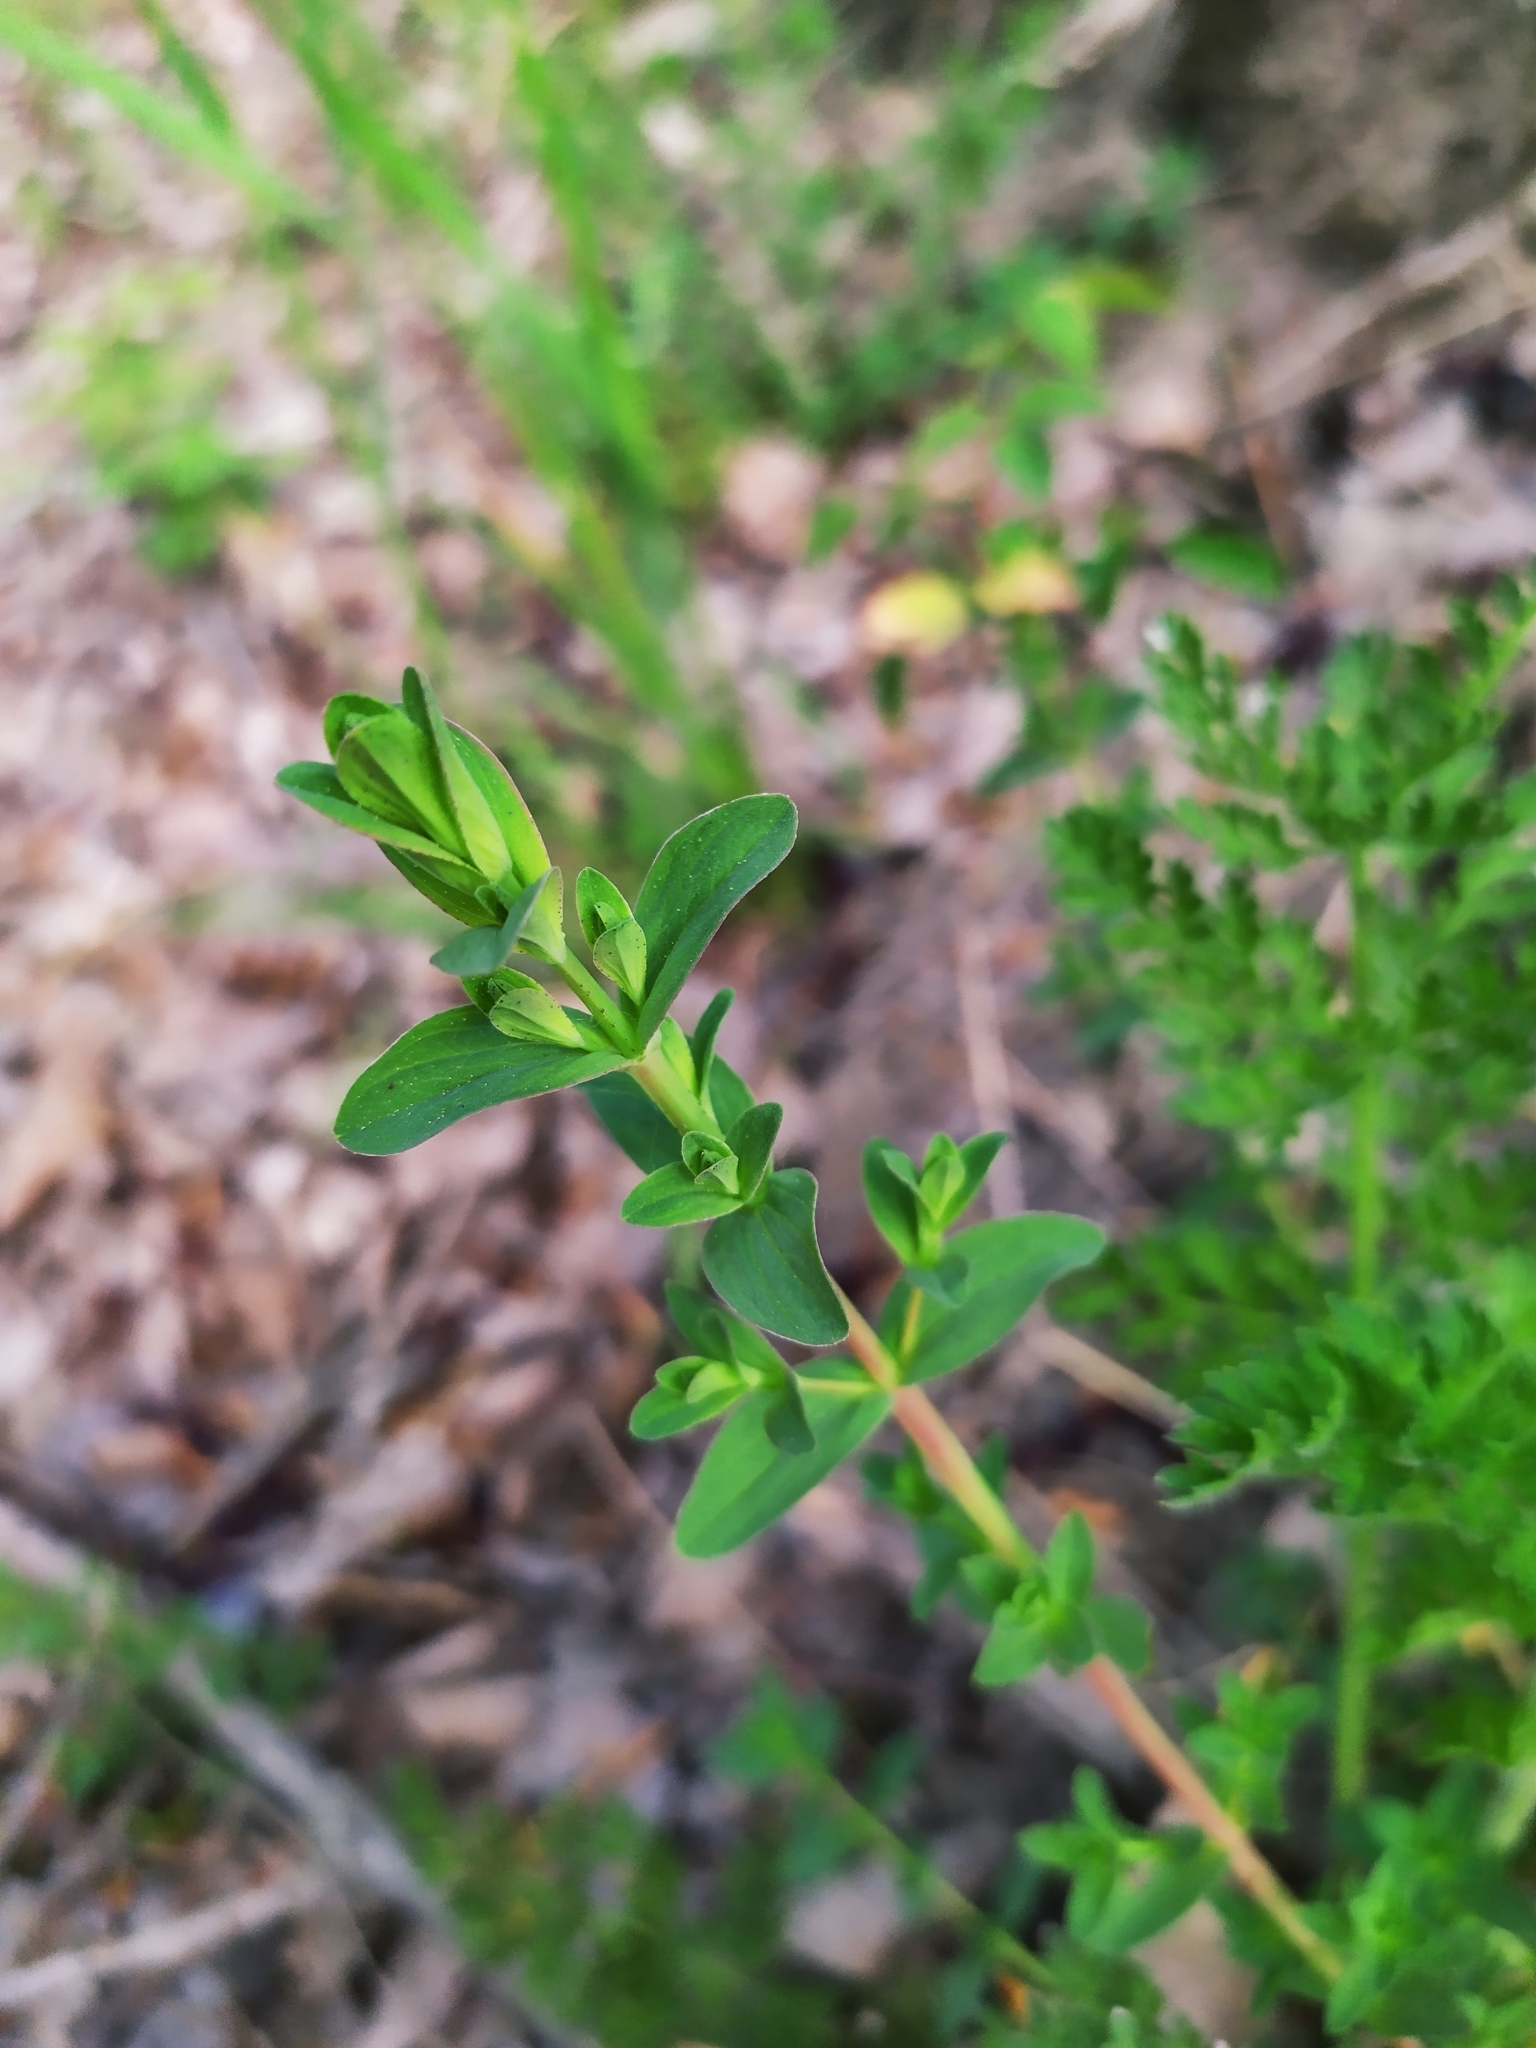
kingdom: Plantae
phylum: Tracheophyta
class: Magnoliopsida
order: Malpighiales
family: Hypericaceae
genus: Hypericum
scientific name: Hypericum perforatum
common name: Common st. johnswort
